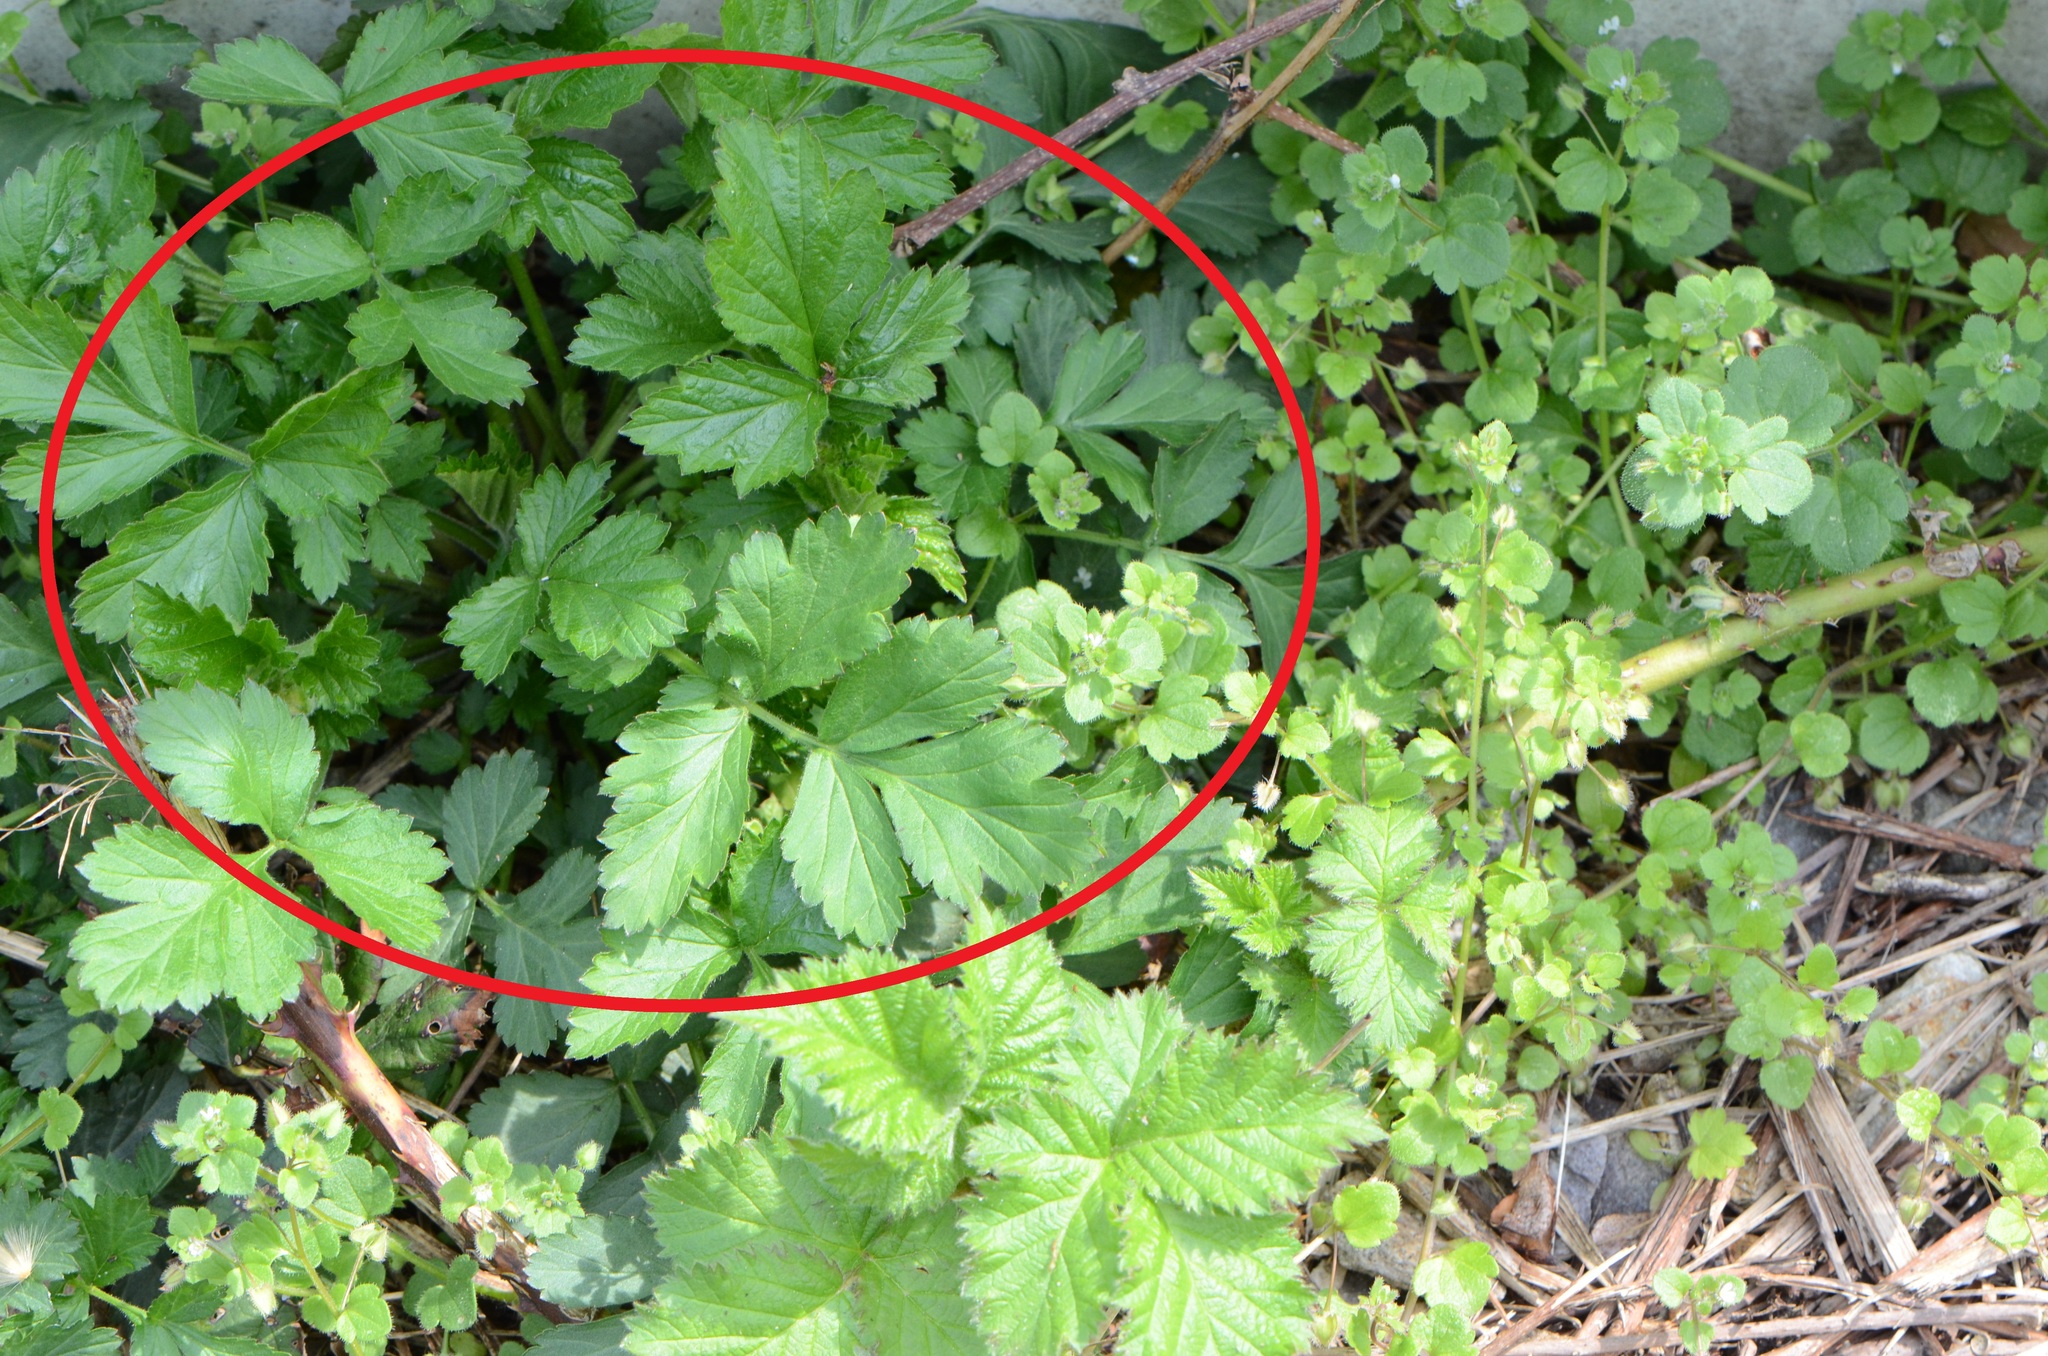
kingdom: Plantae
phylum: Tracheophyta
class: Magnoliopsida
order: Rosales
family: Rosaceae
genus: Geum
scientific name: Geum urbanum
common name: Wood avens
